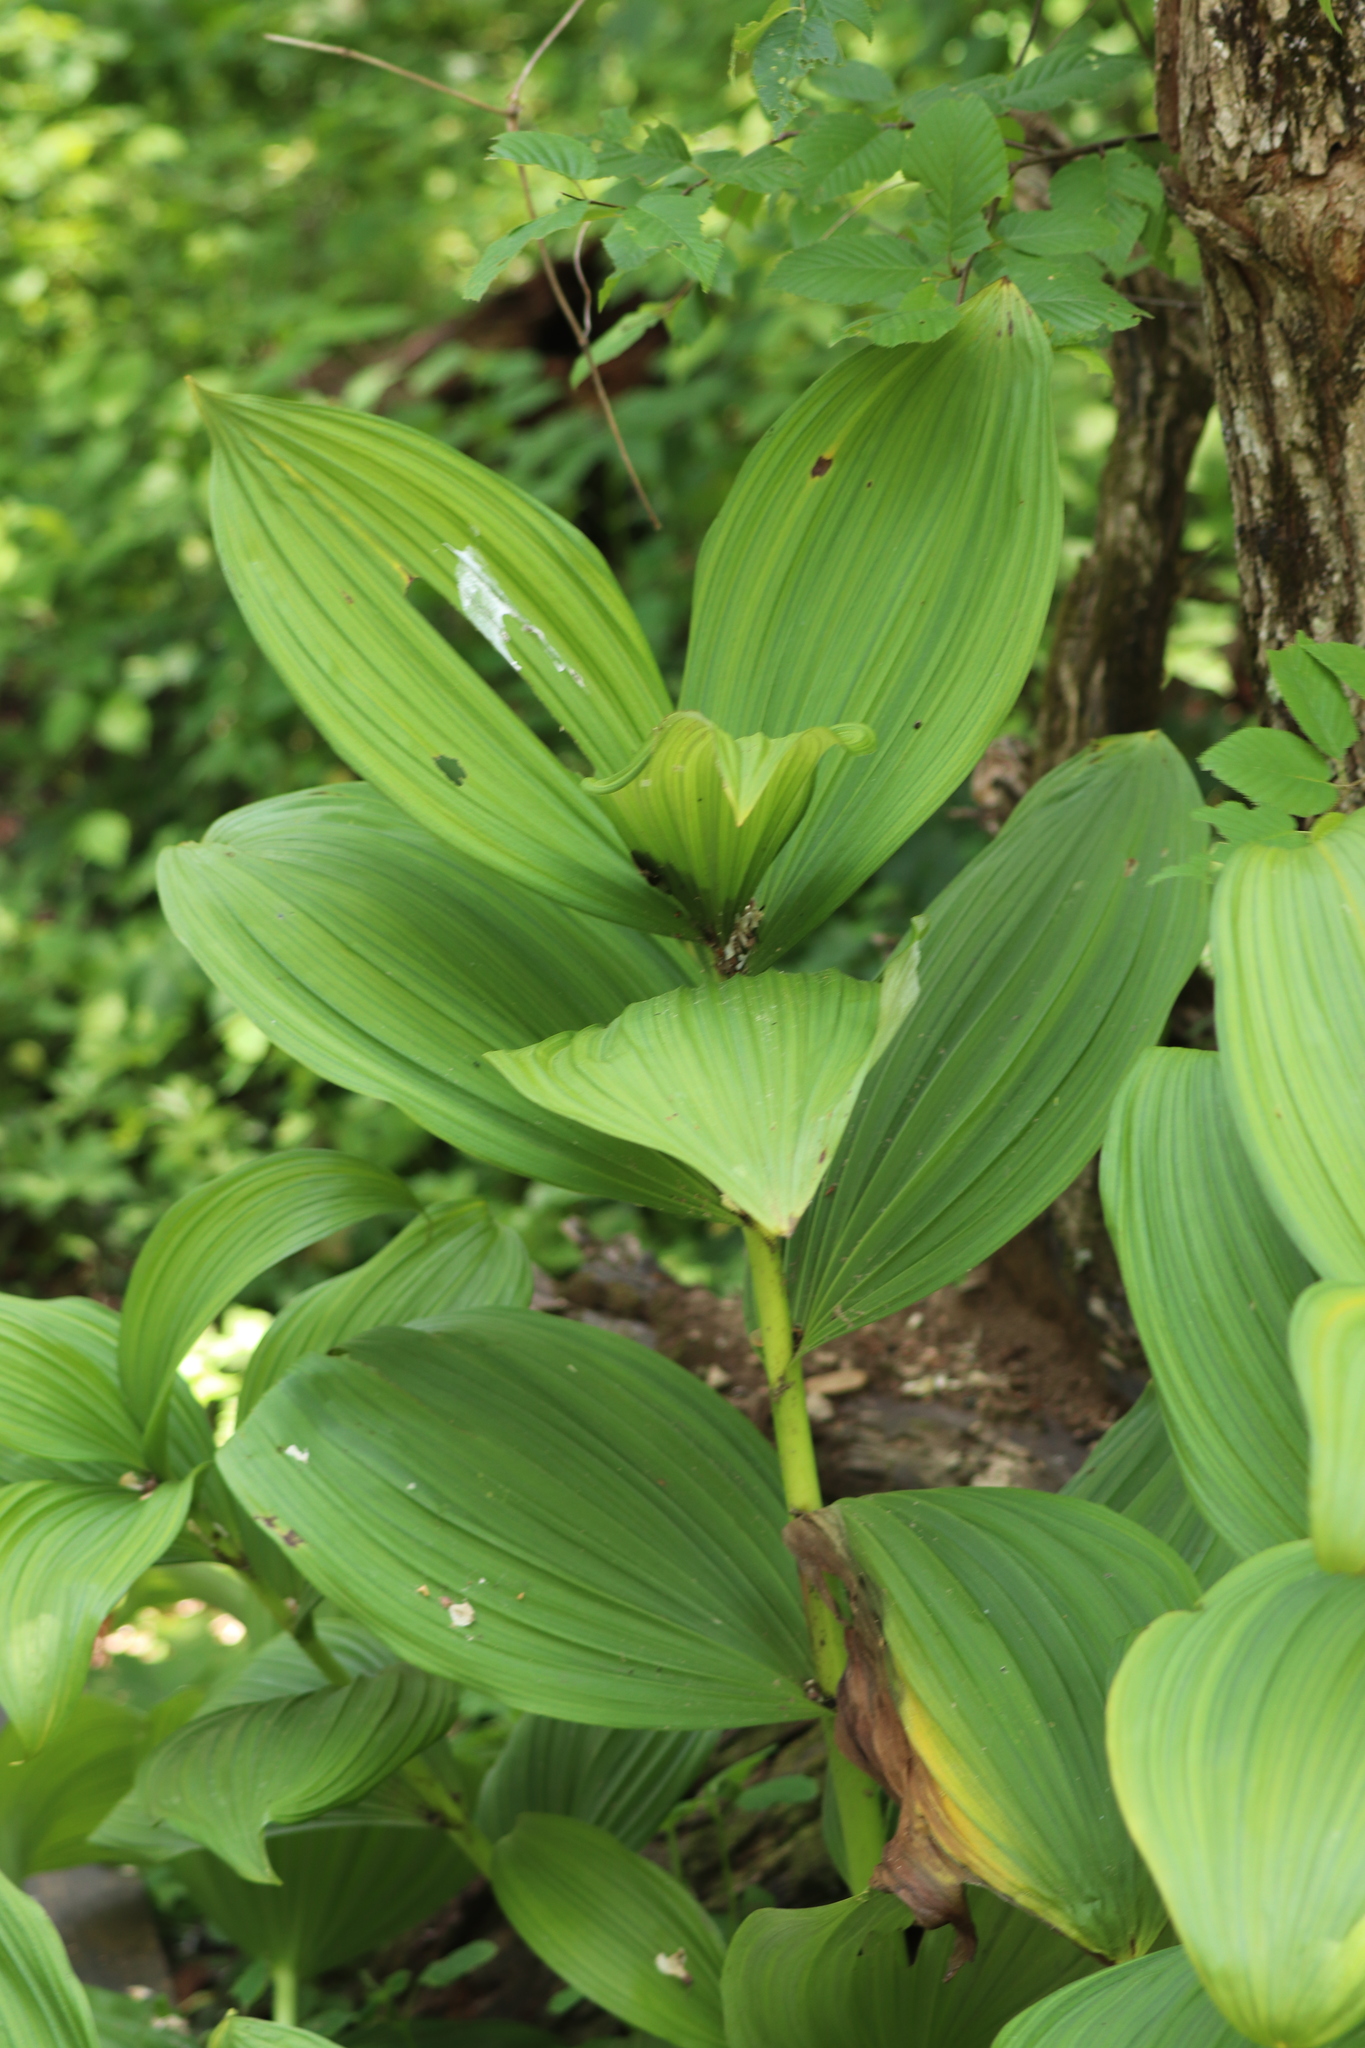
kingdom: Plantae
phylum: Tracheophyta
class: Liliopsida
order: Liliales
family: Melanthiaceae
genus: Veratrum
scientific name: Veratrum viride
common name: American false hellebore
